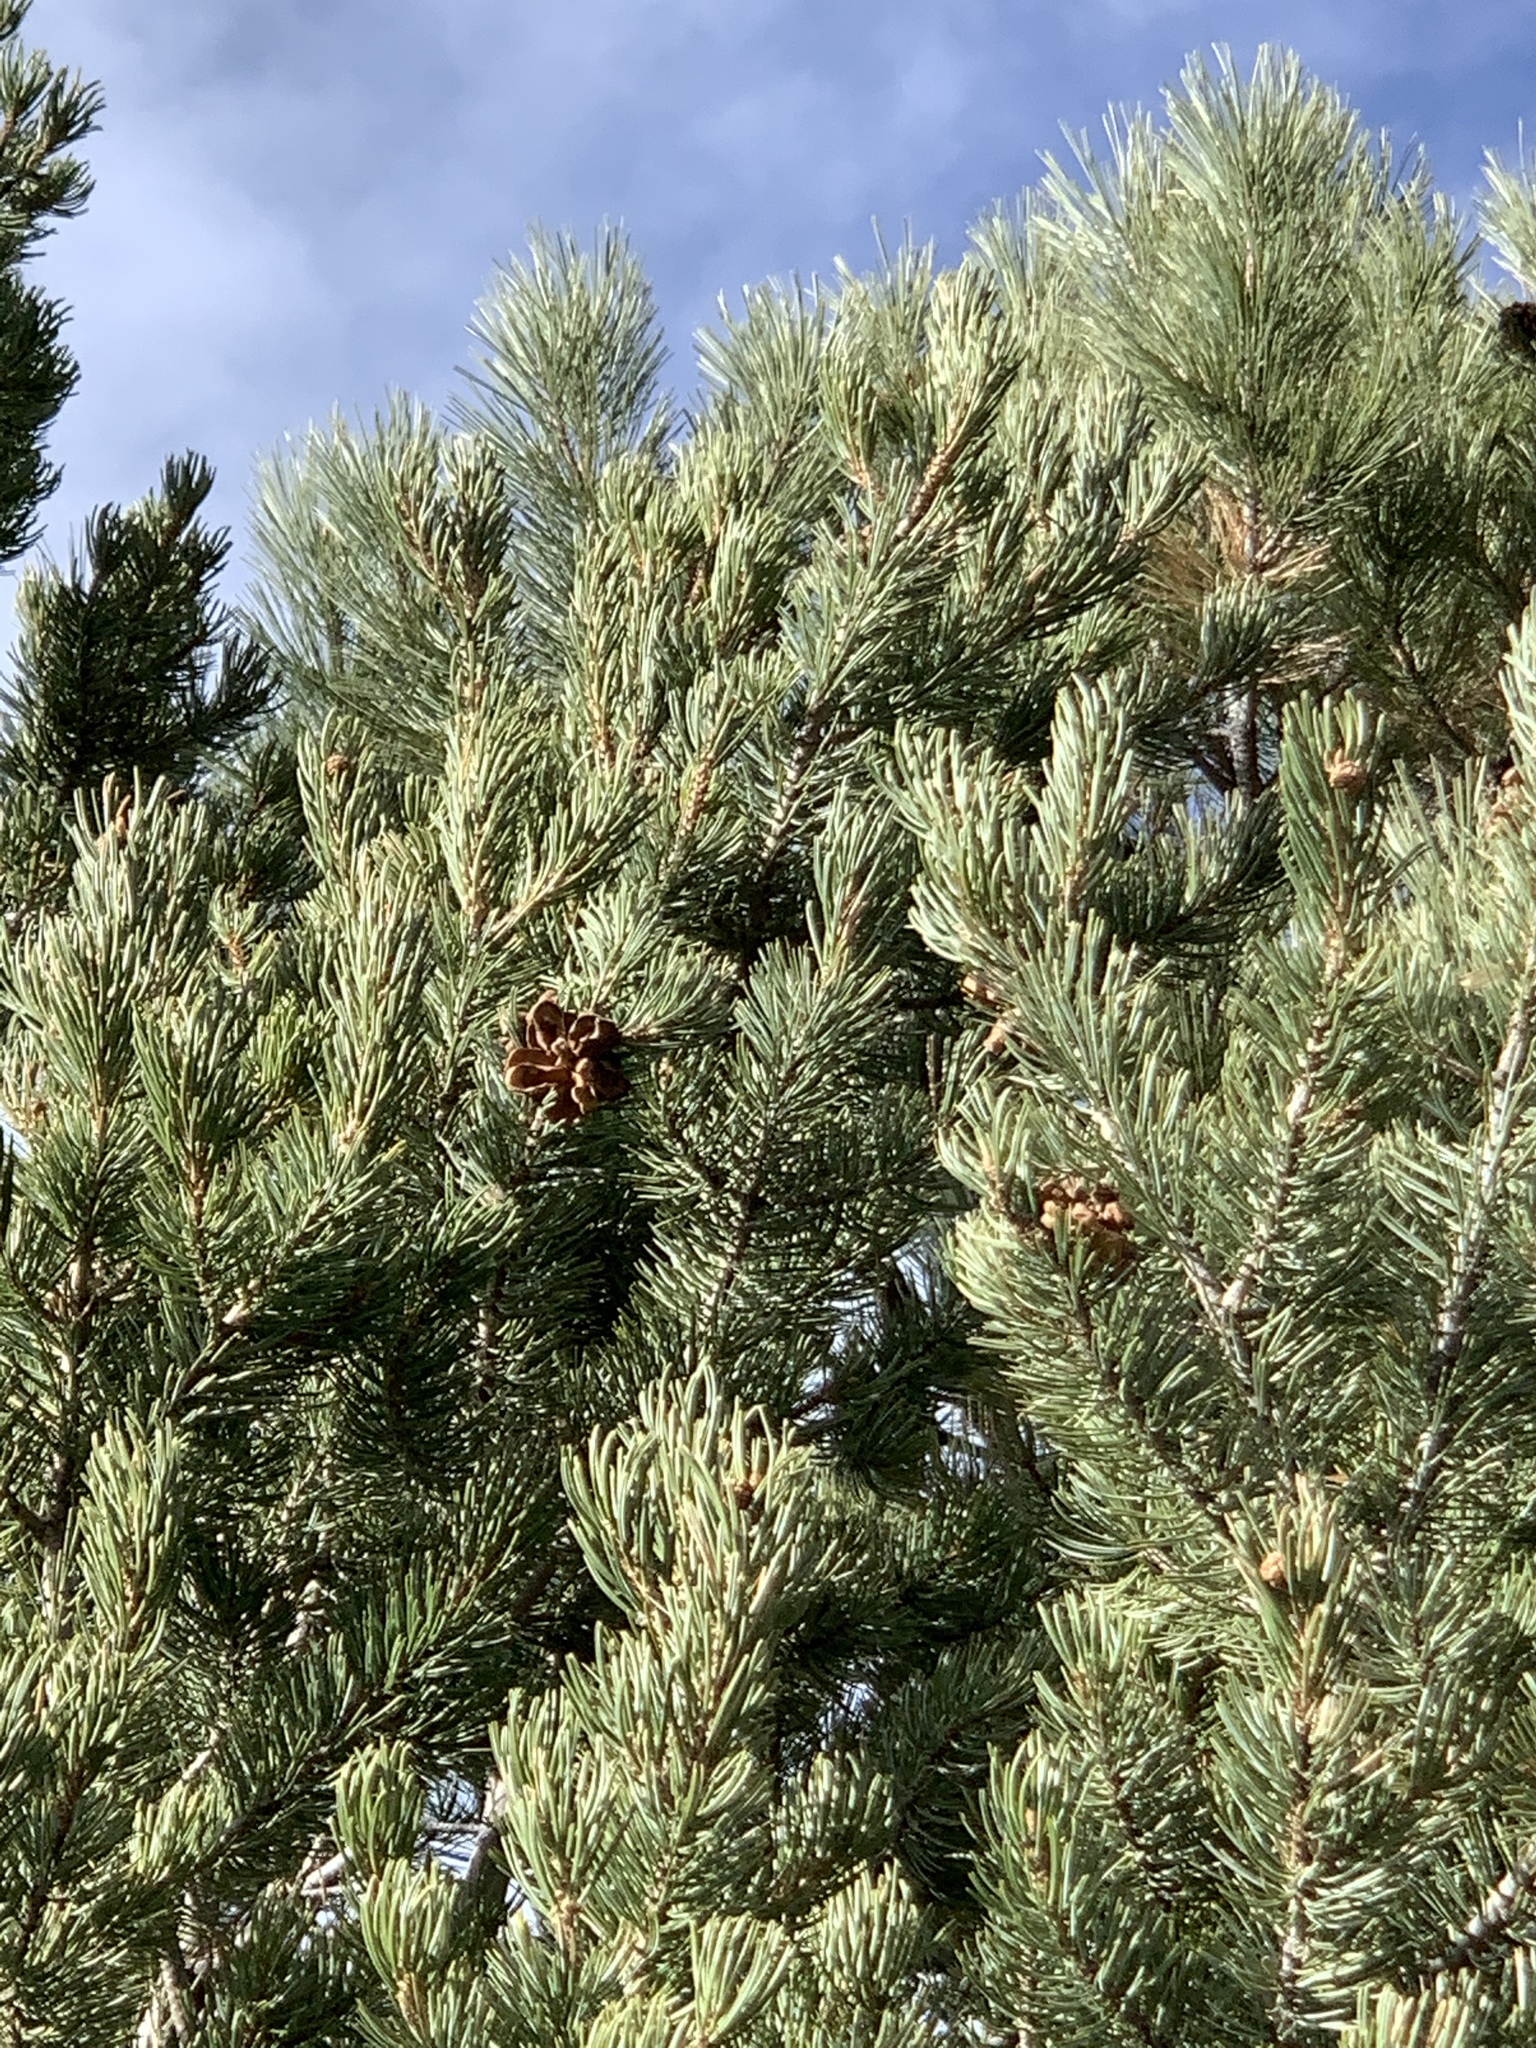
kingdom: Plantae
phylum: Tracheophyta
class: Pinopsida
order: Pinales
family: Pinaceae
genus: Pinus
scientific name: Pinus edulis
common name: Colorado pinyon
